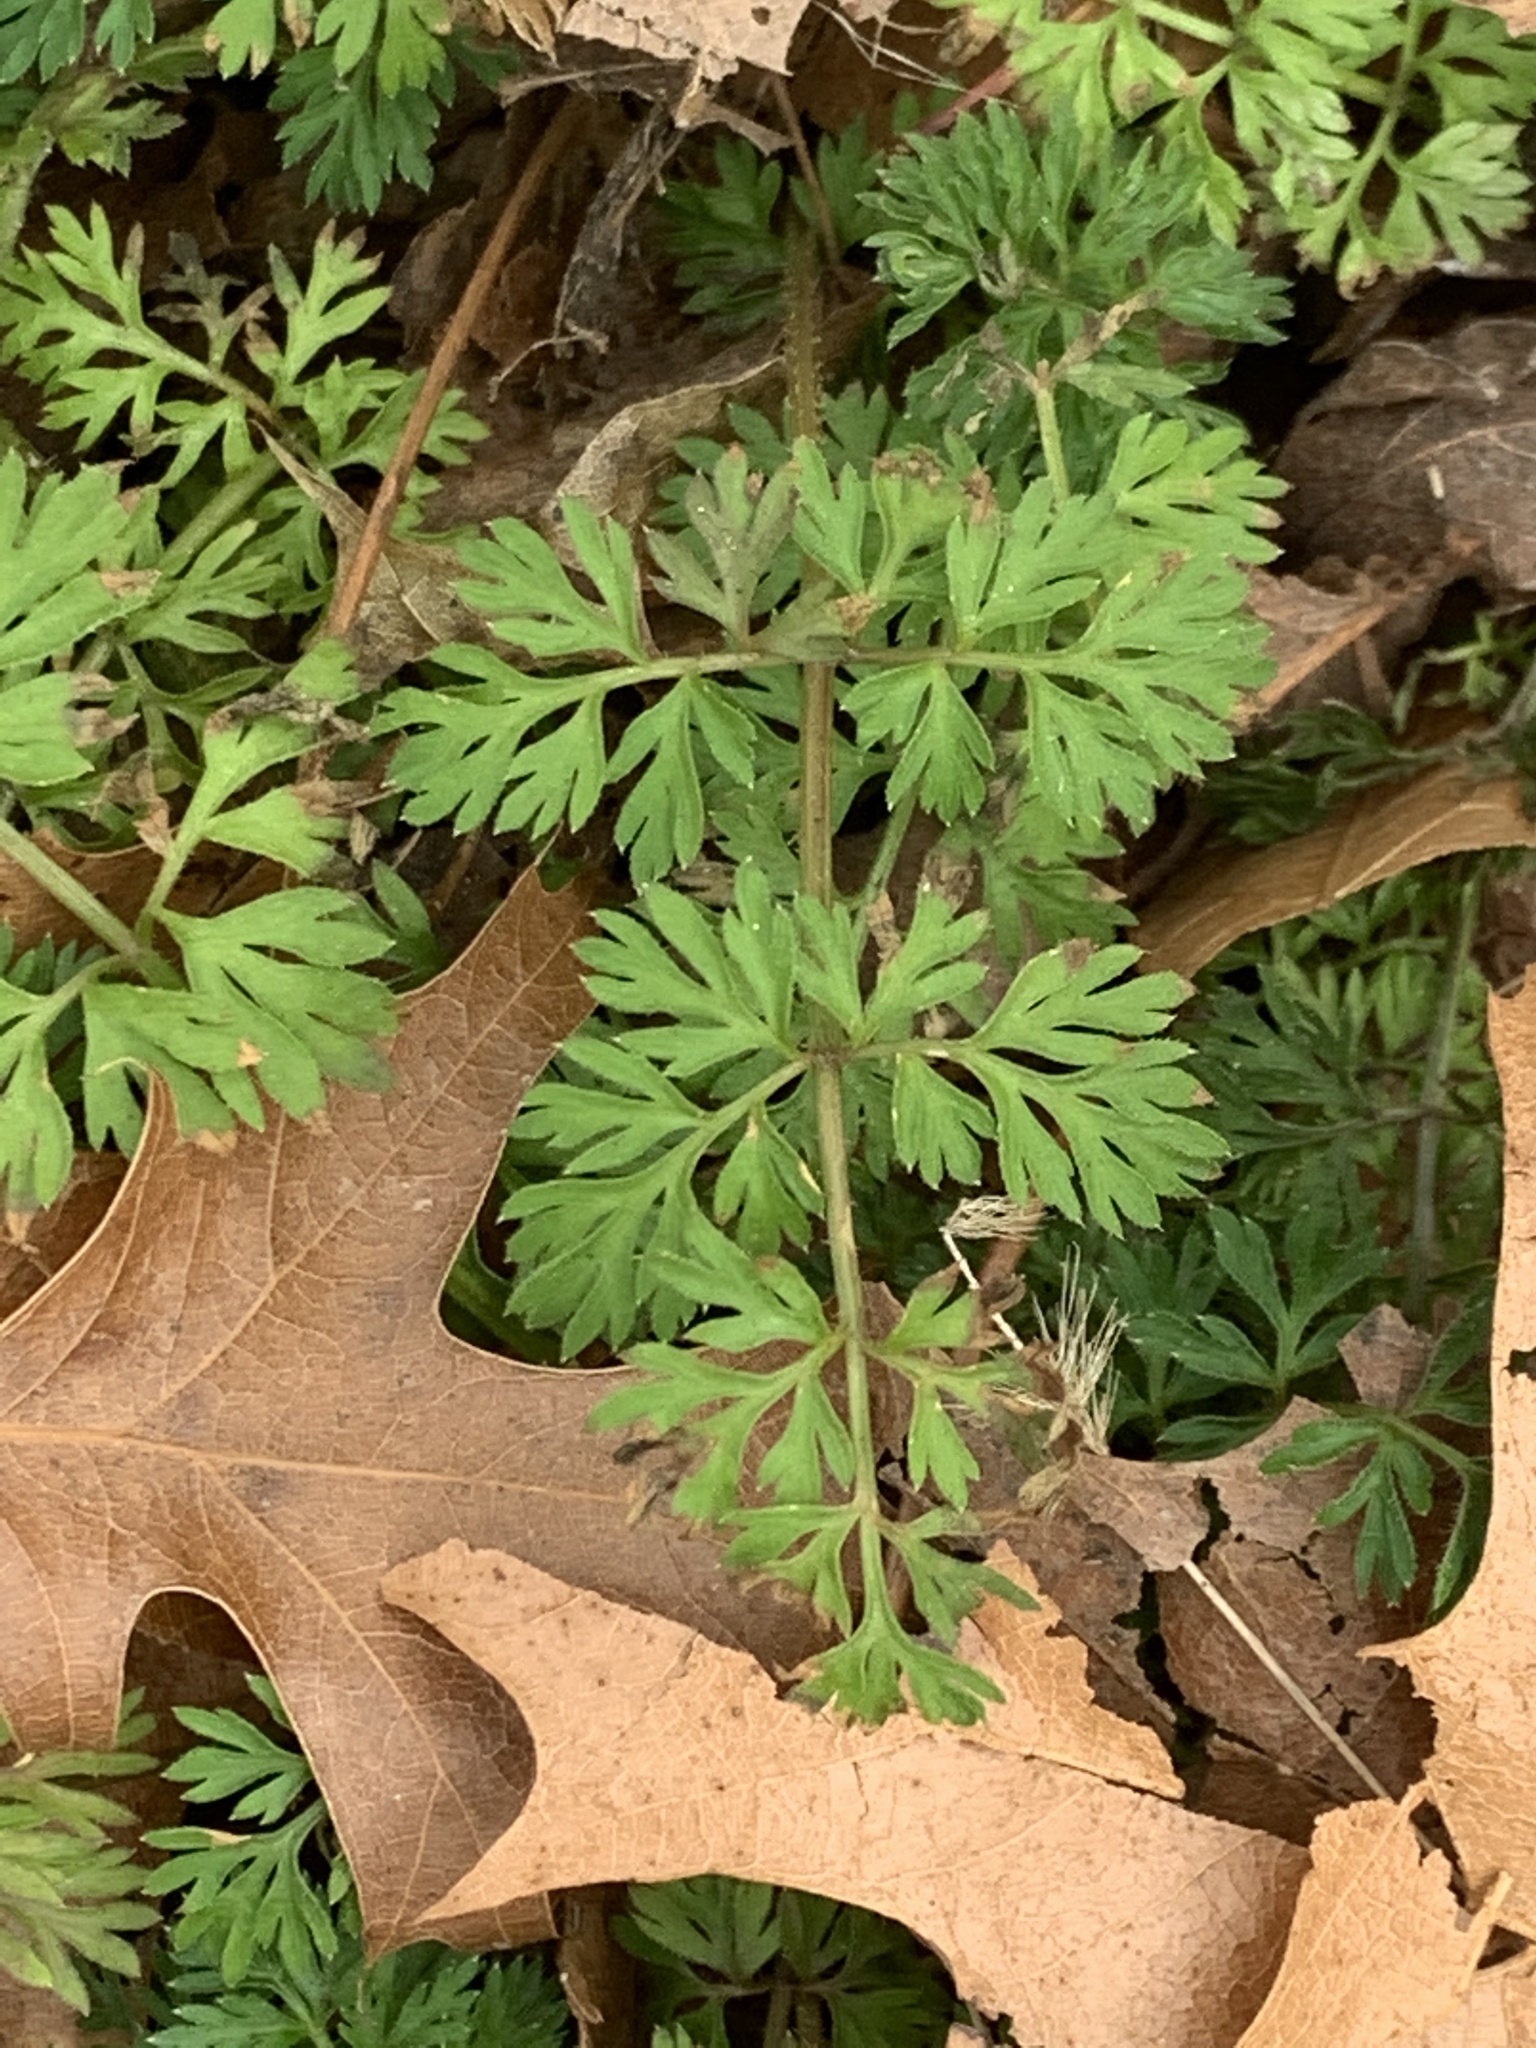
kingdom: Plantae
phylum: Tracheophyta
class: Magnoliopsida
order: Apiales
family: Apiaceae
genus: Daucus
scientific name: Daucus carota
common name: Wild carrot
